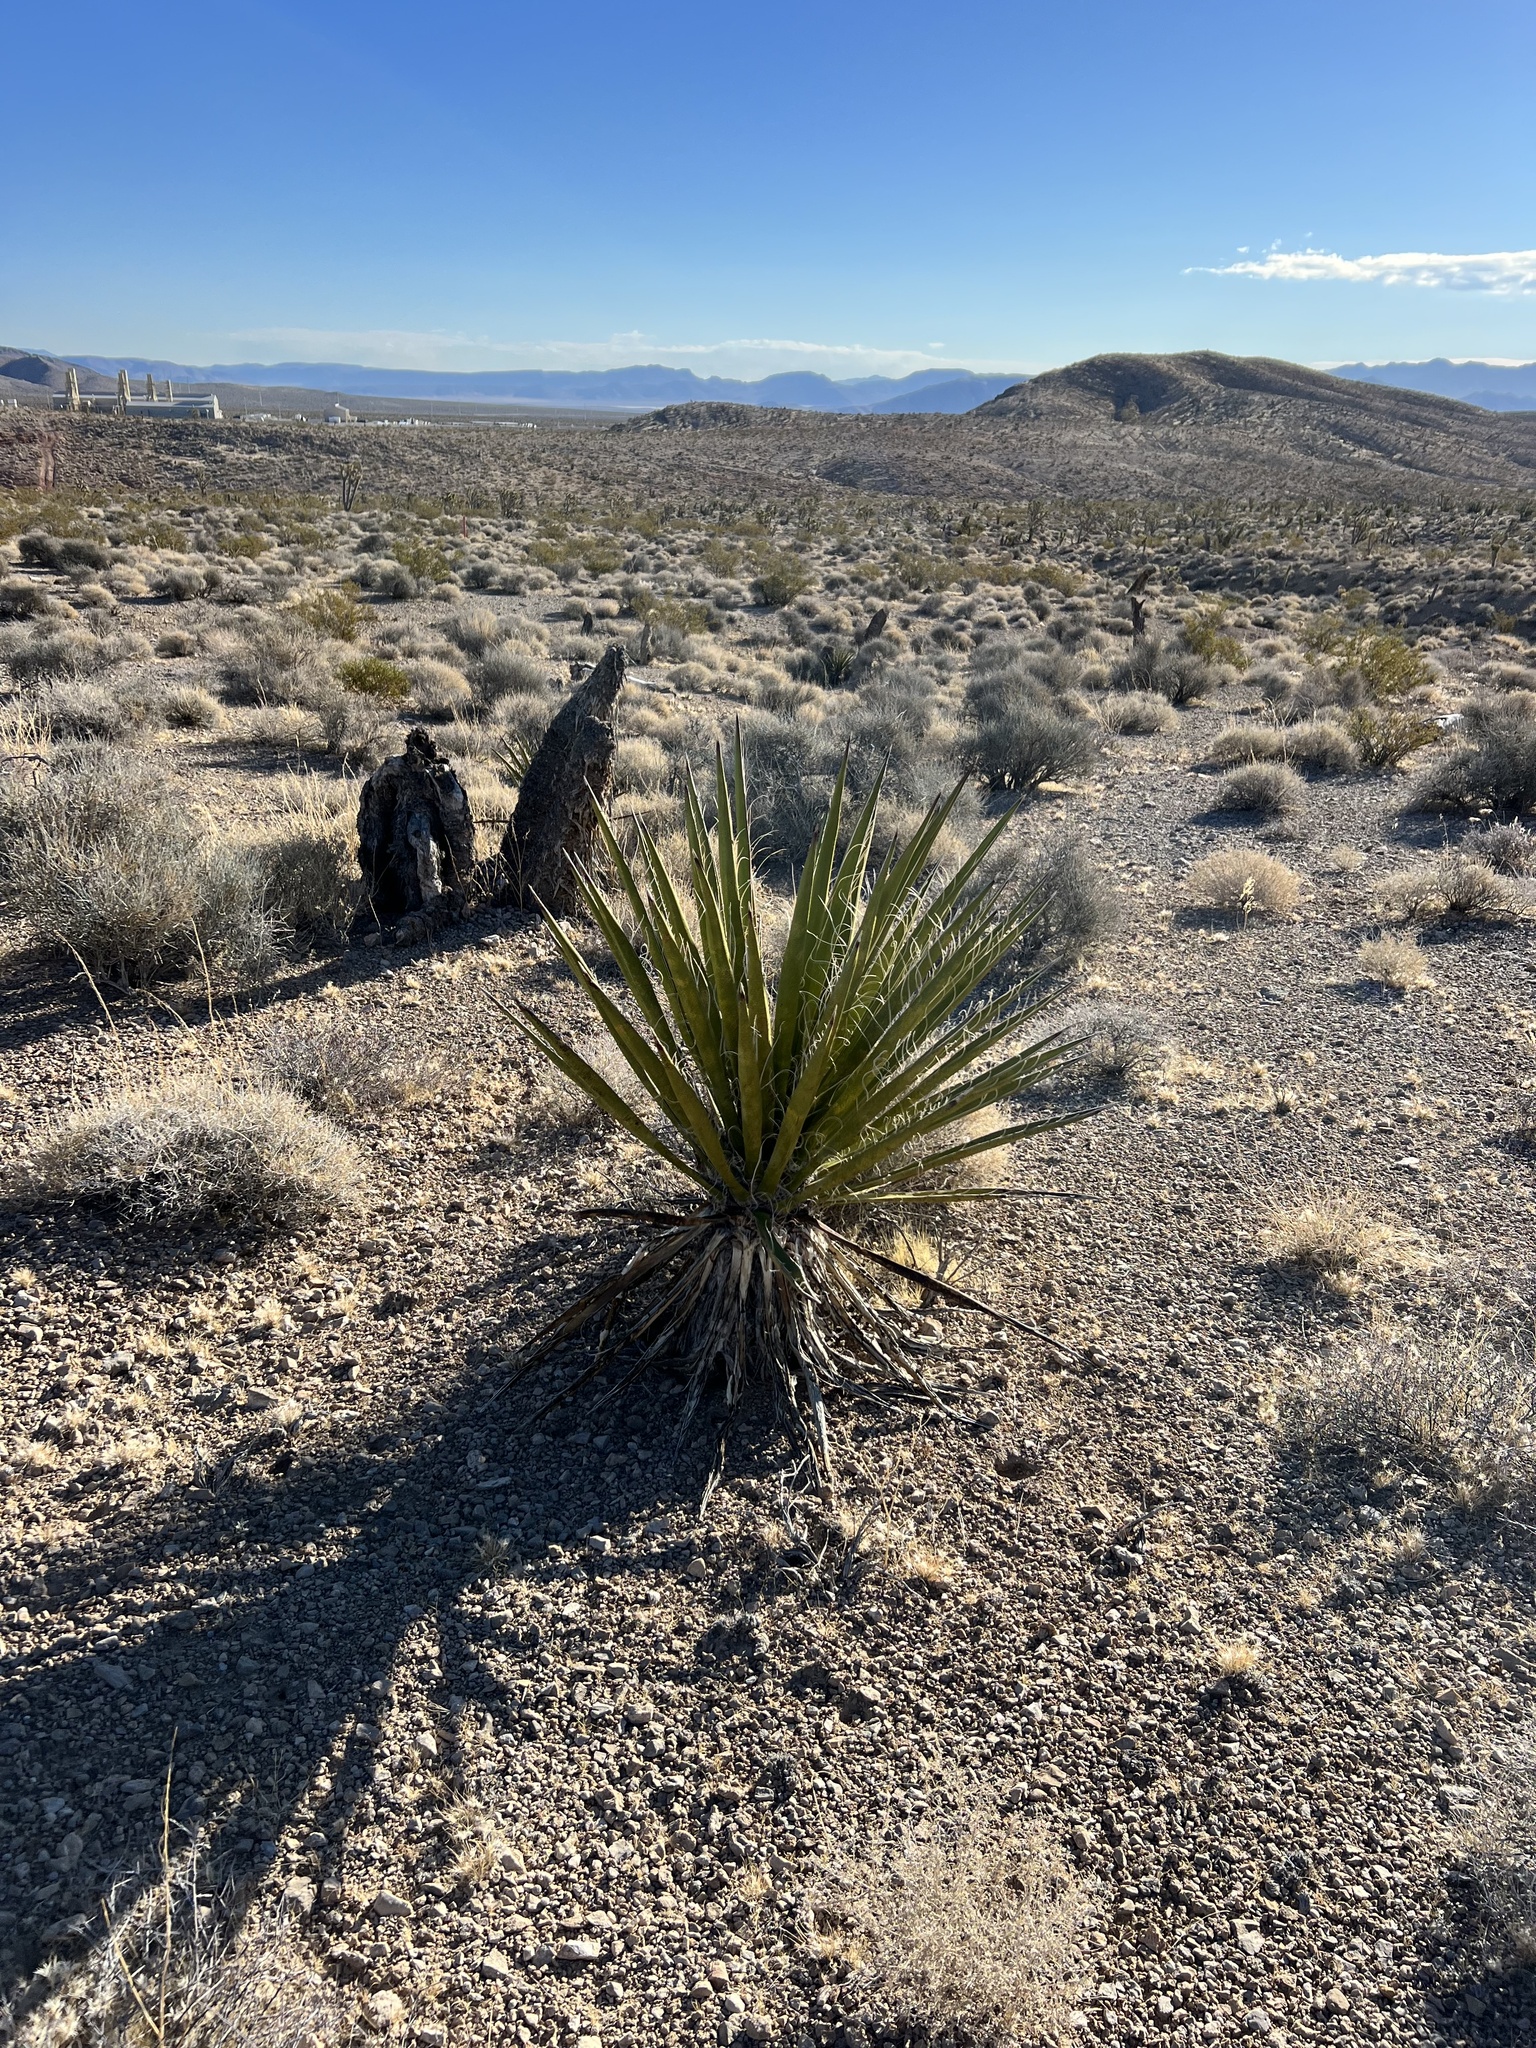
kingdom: Plantae
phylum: Tracheophyta
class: Liliopsida
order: Asparagales
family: Asparagaceae
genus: Yucca
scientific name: Yucca schidigera
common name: Mojave yucca
